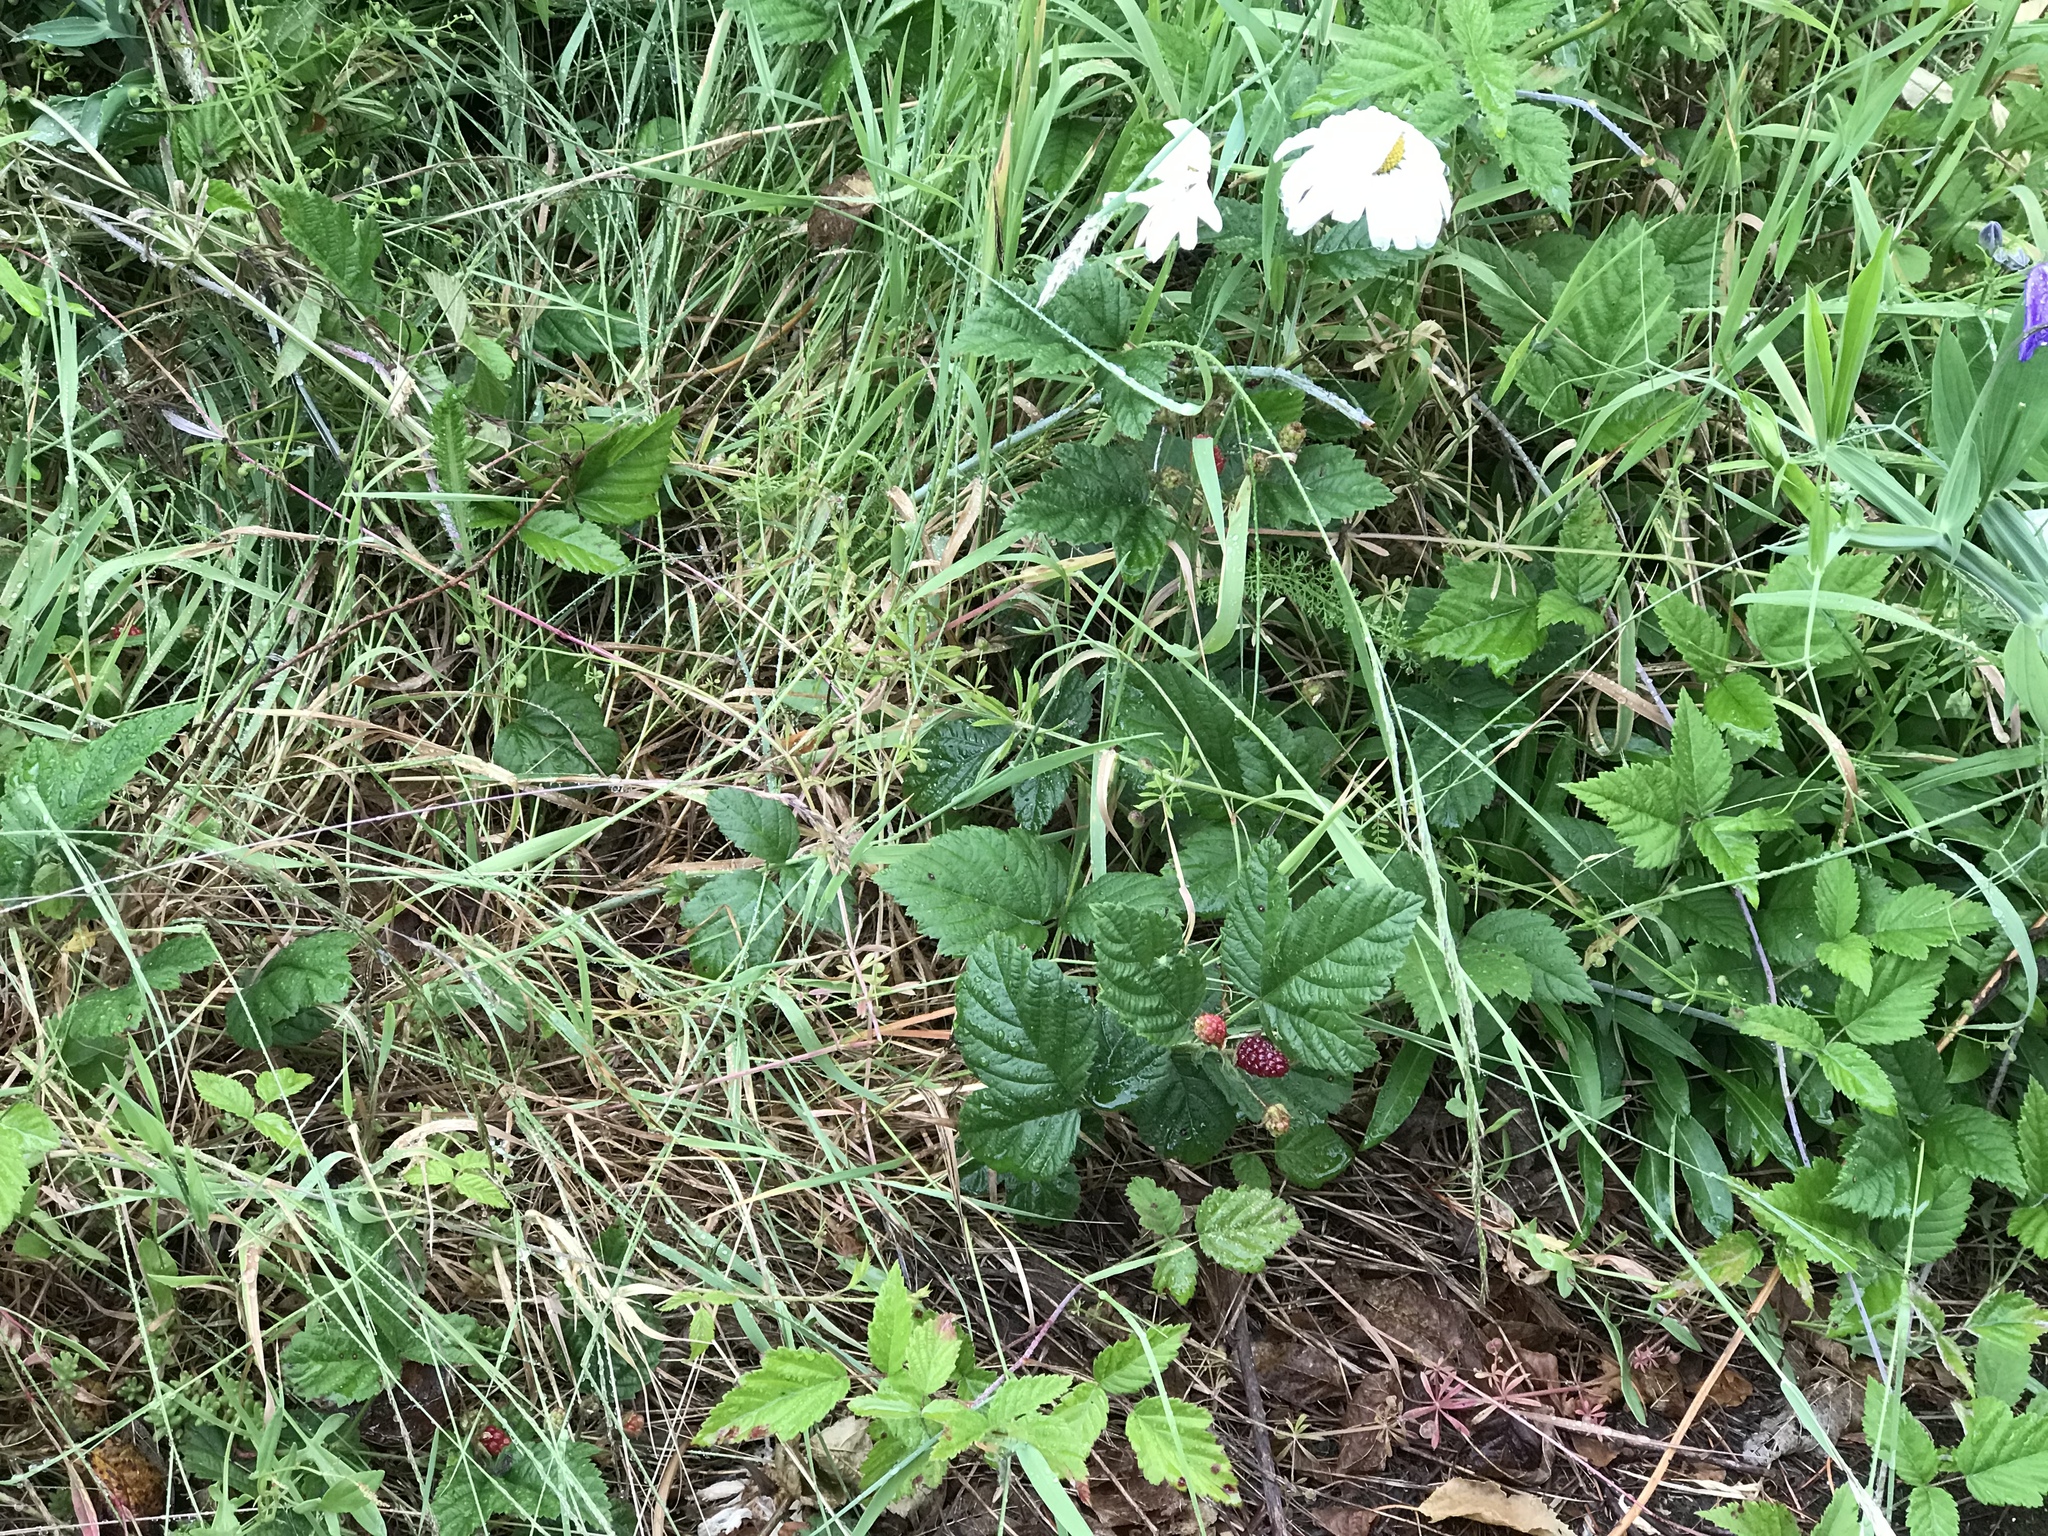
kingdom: Plantae
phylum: Tracheophyta
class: Magnoliopsida
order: Rosales
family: Rosaceae
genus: Rubus
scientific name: Rubus ursinus
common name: Pacific blackberry
